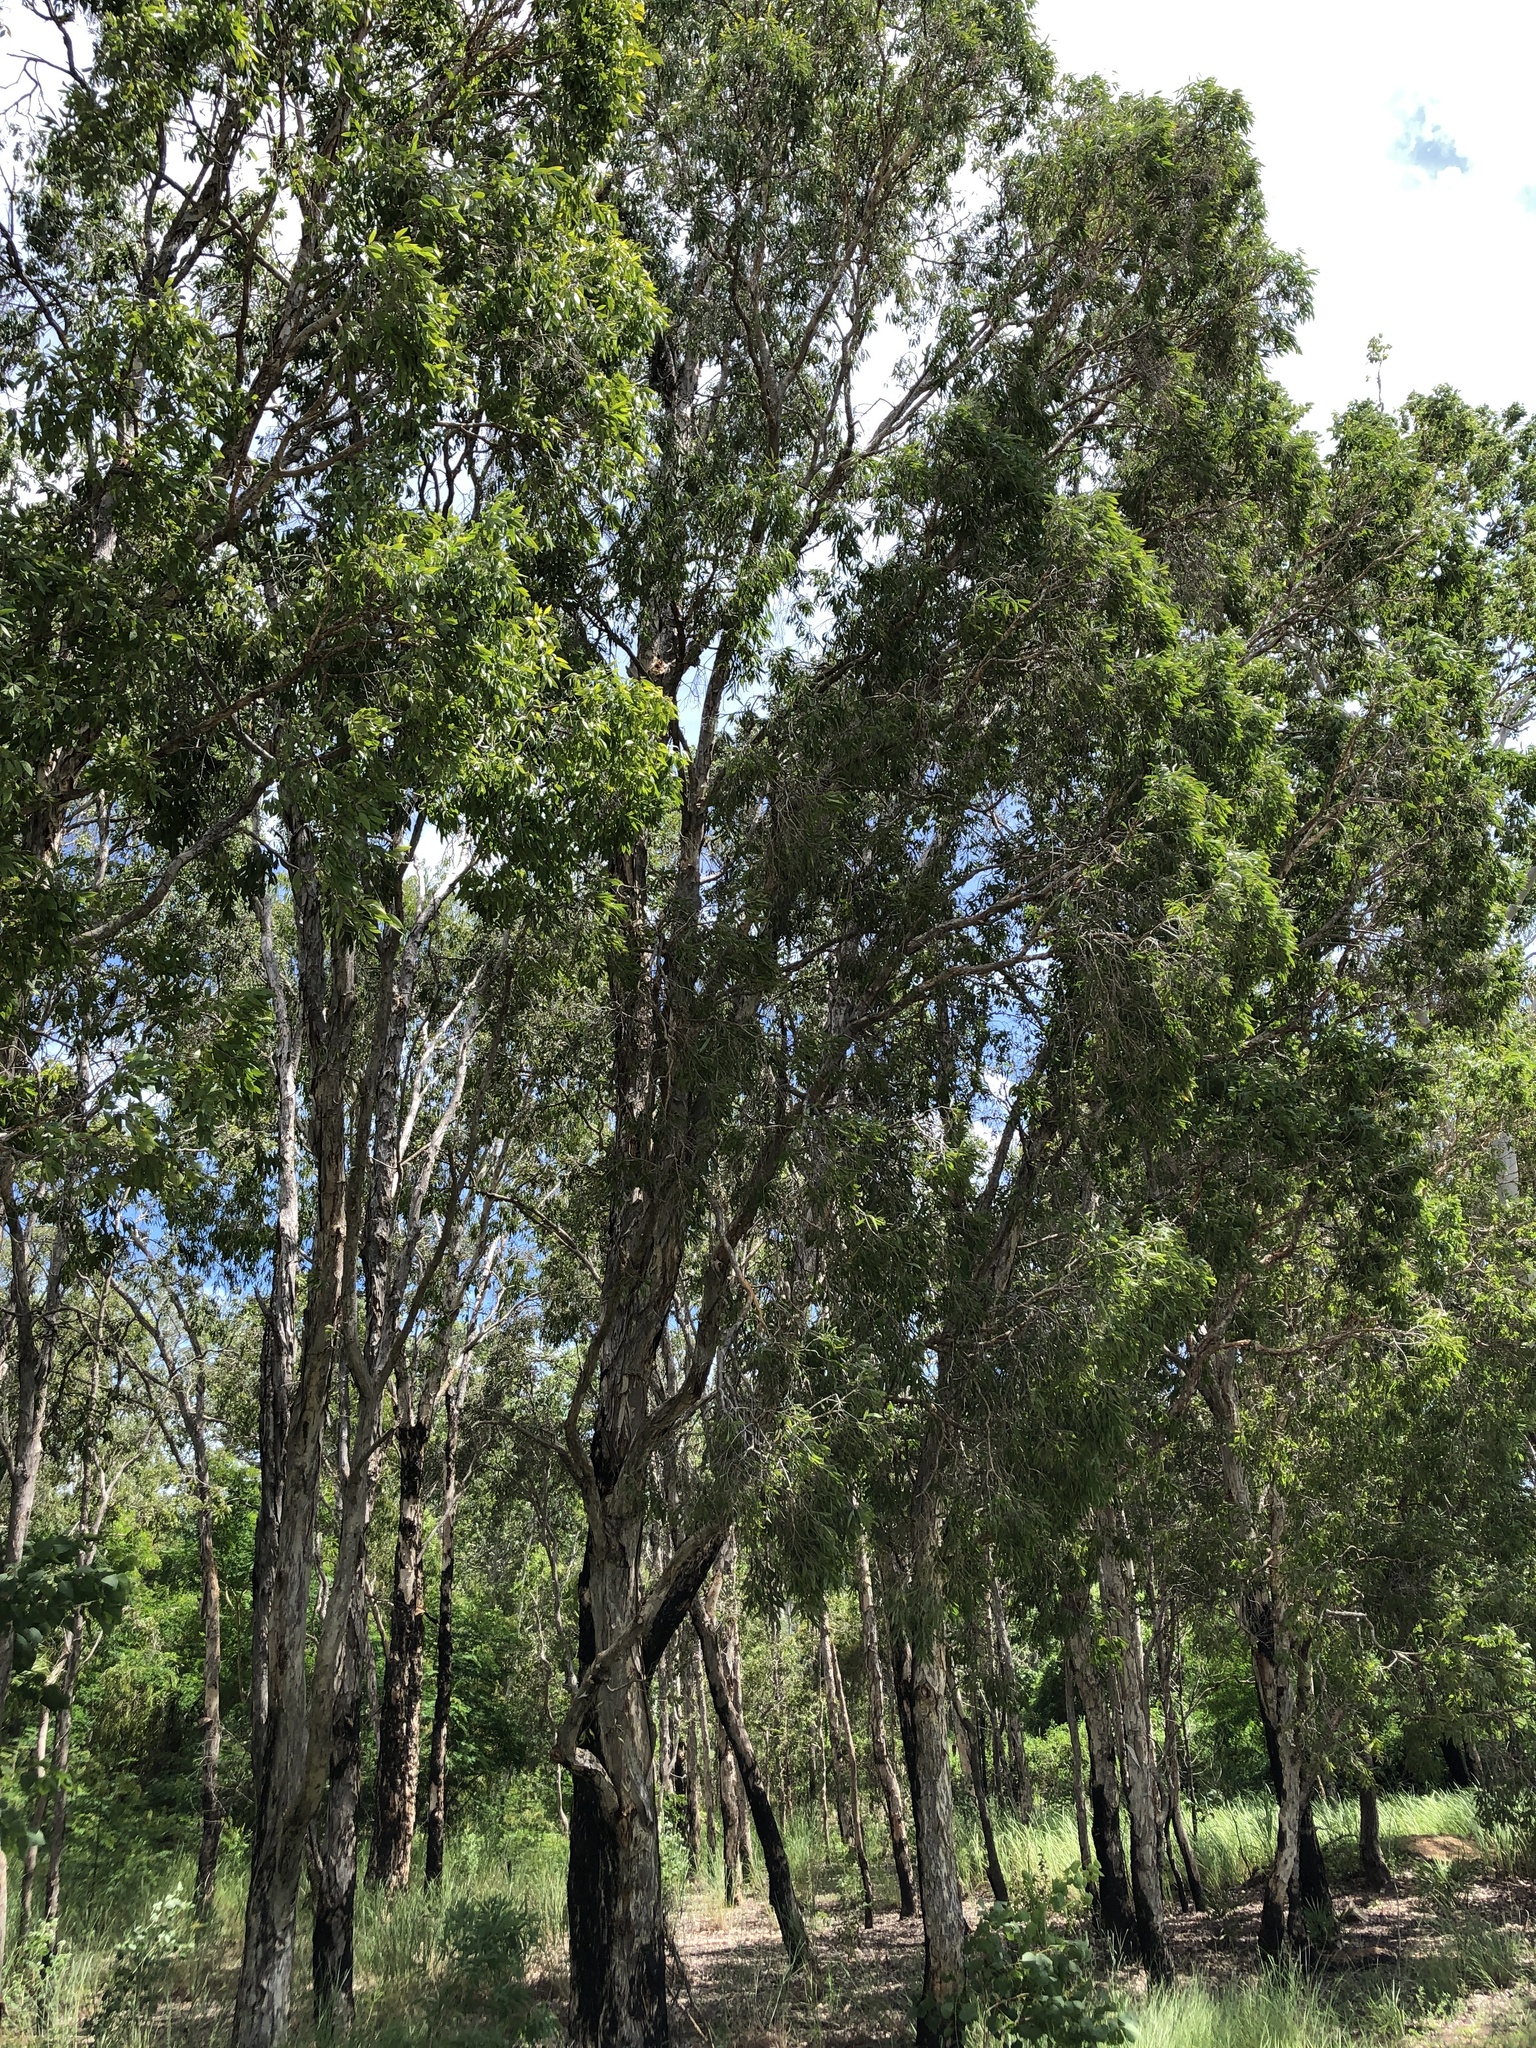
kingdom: Plantae
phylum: Tracheophyta
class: Magnoliopsida
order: Myrtales
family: Myrtaceae
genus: Melaleuca
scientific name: Melaleuca dealbata
